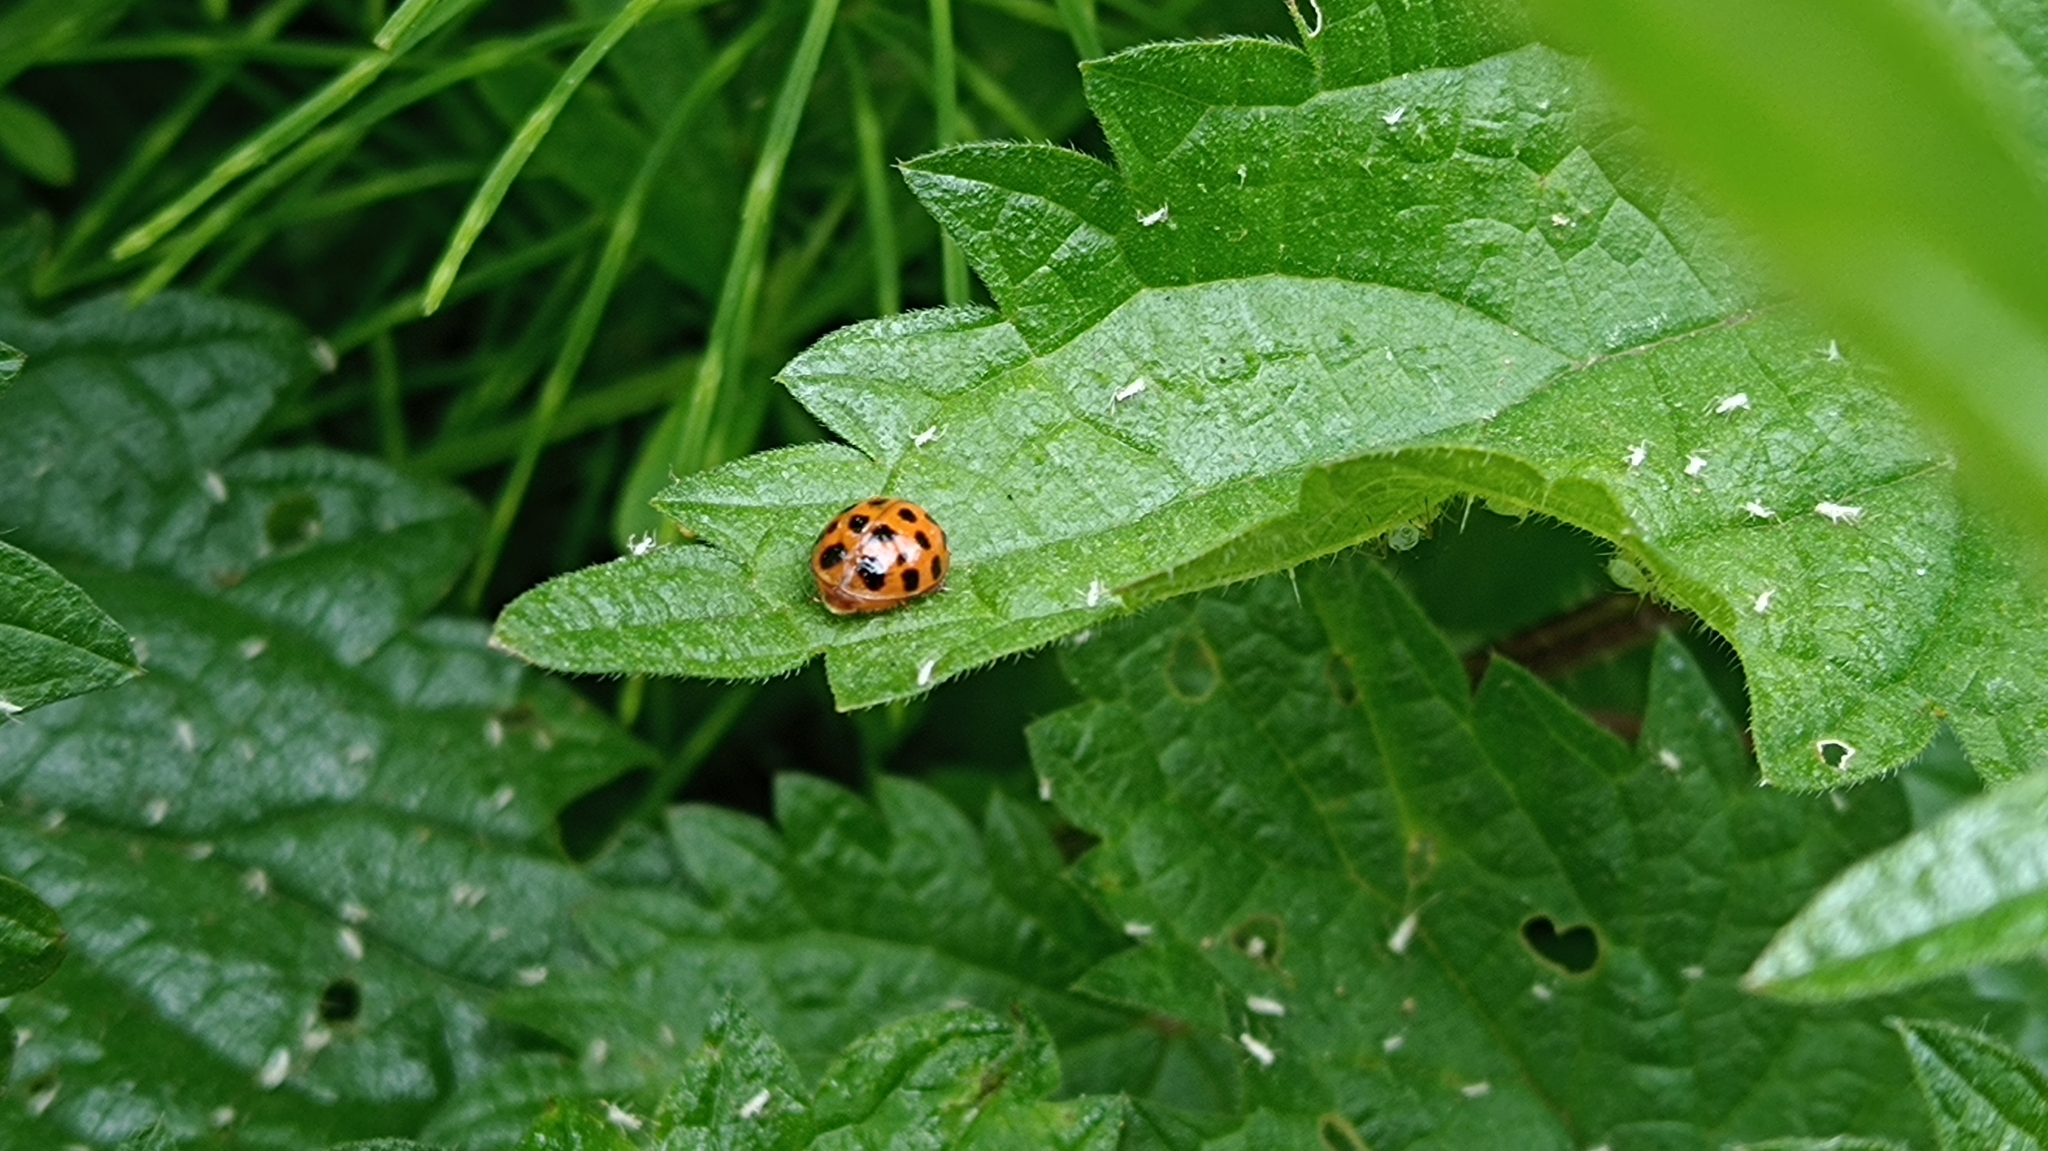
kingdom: Animalia
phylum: Arthropoda
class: Insecta
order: Coleoptera
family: Coccinellidae
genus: Harmonia
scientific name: Harmonia axyridis
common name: Harlequin ladybird
